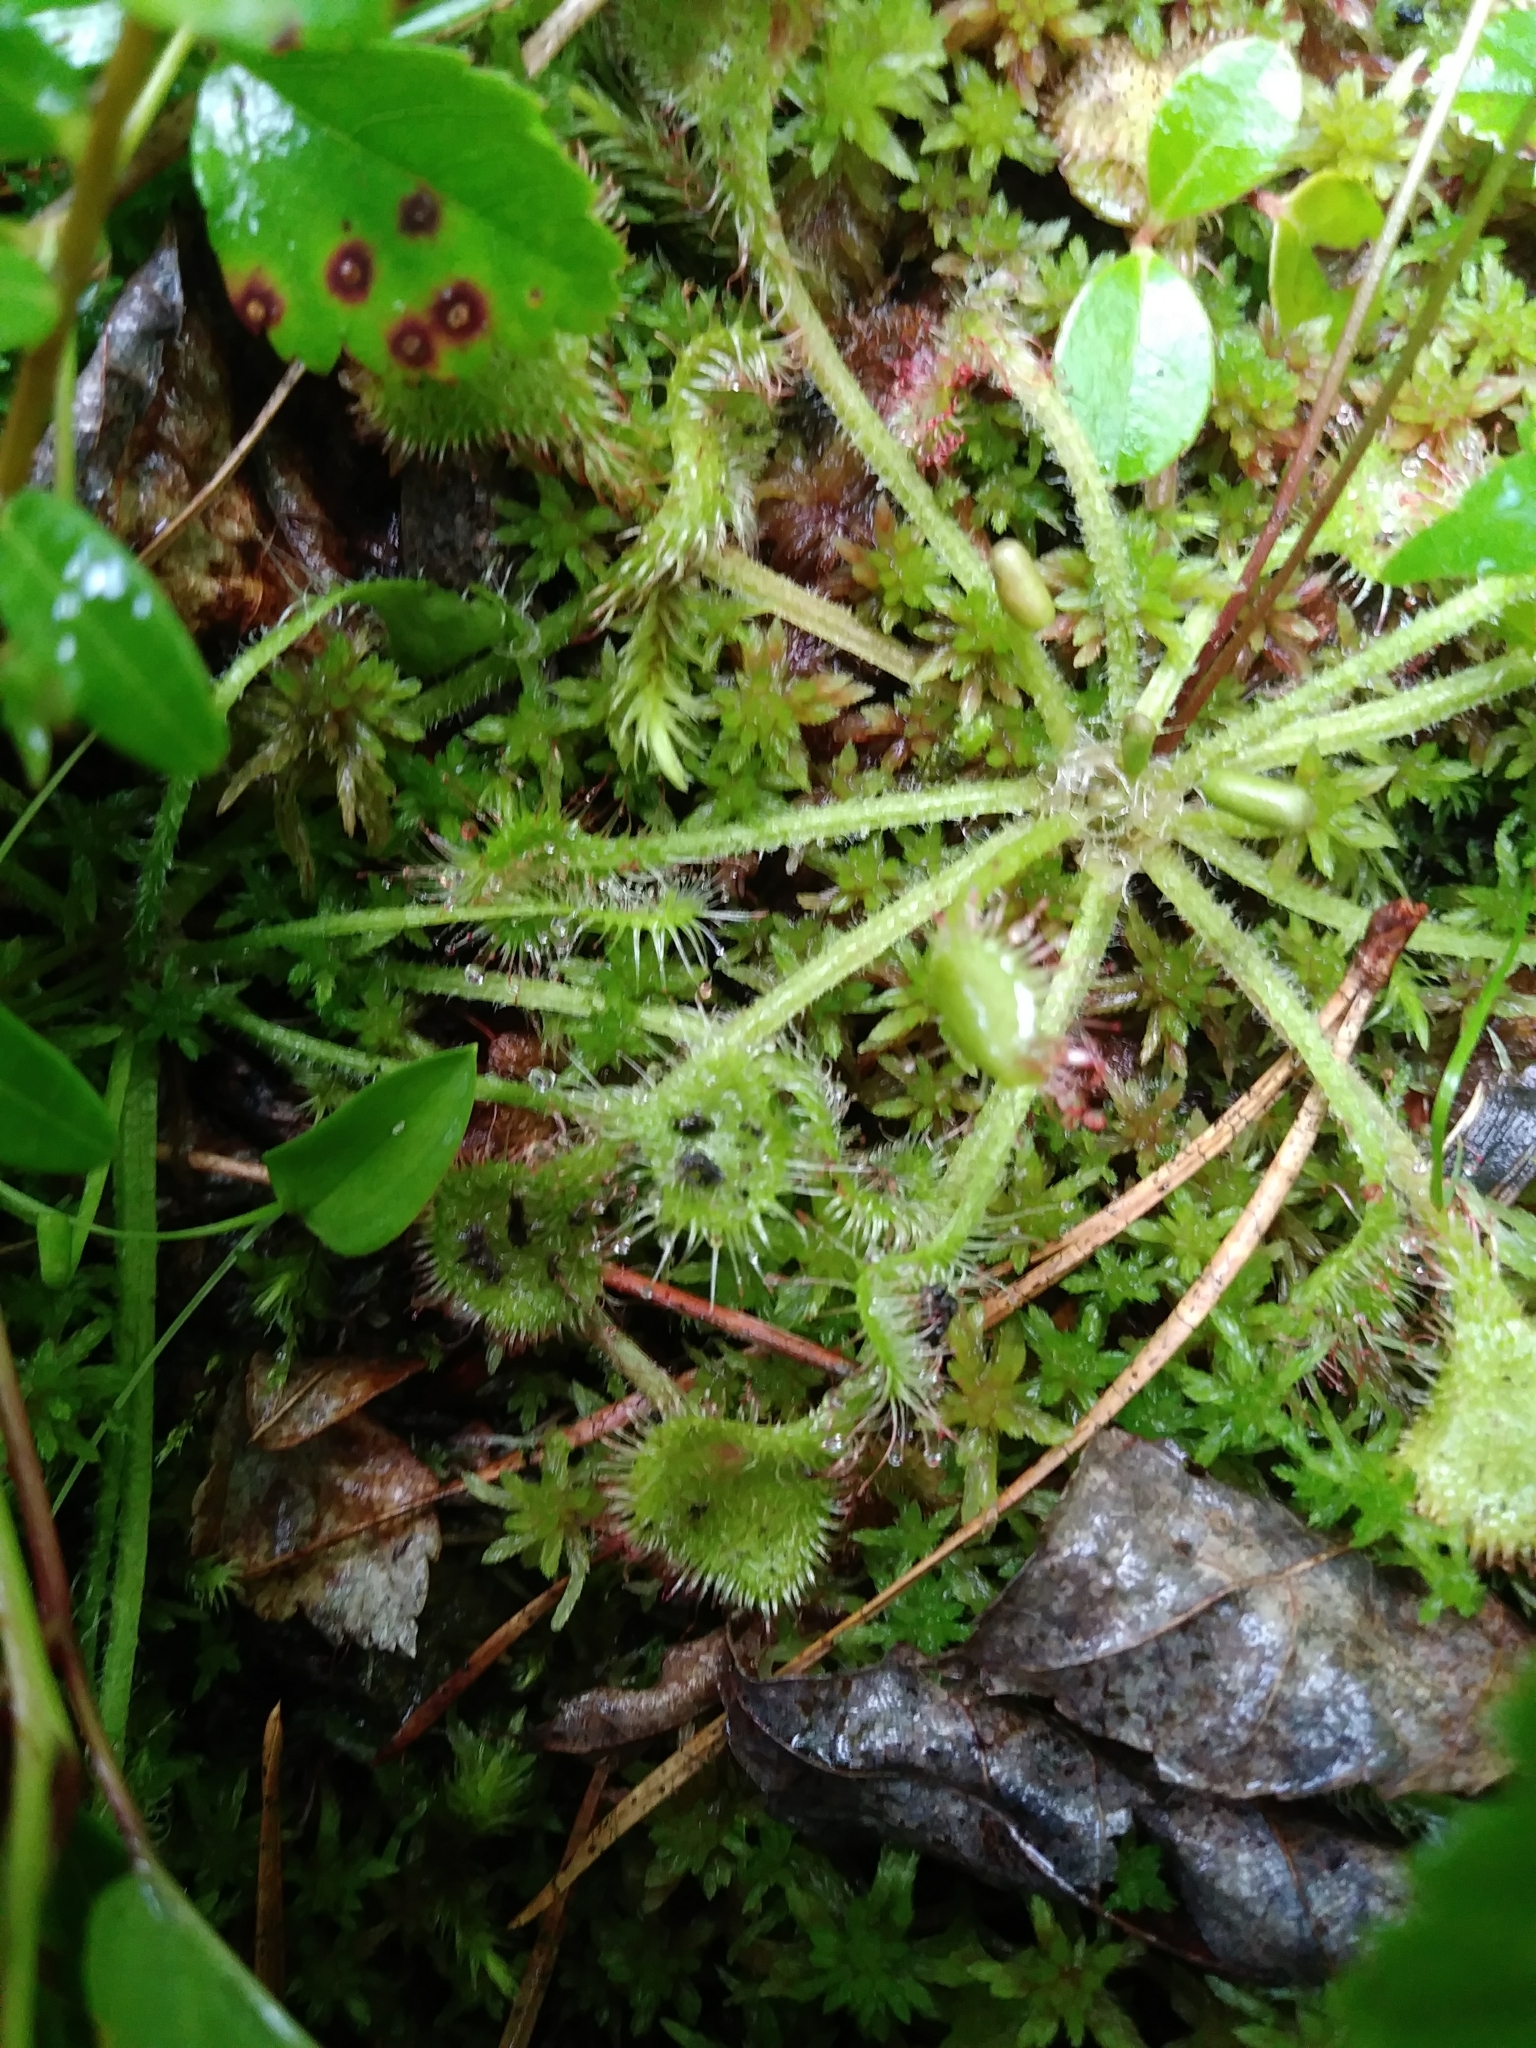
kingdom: Plantae
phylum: Tracheophyta
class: Magnoliopsida
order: Caryophyllales
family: Droseraceae
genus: Drosera
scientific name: Drosera rotundifolia
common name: Round-leaved sundew
